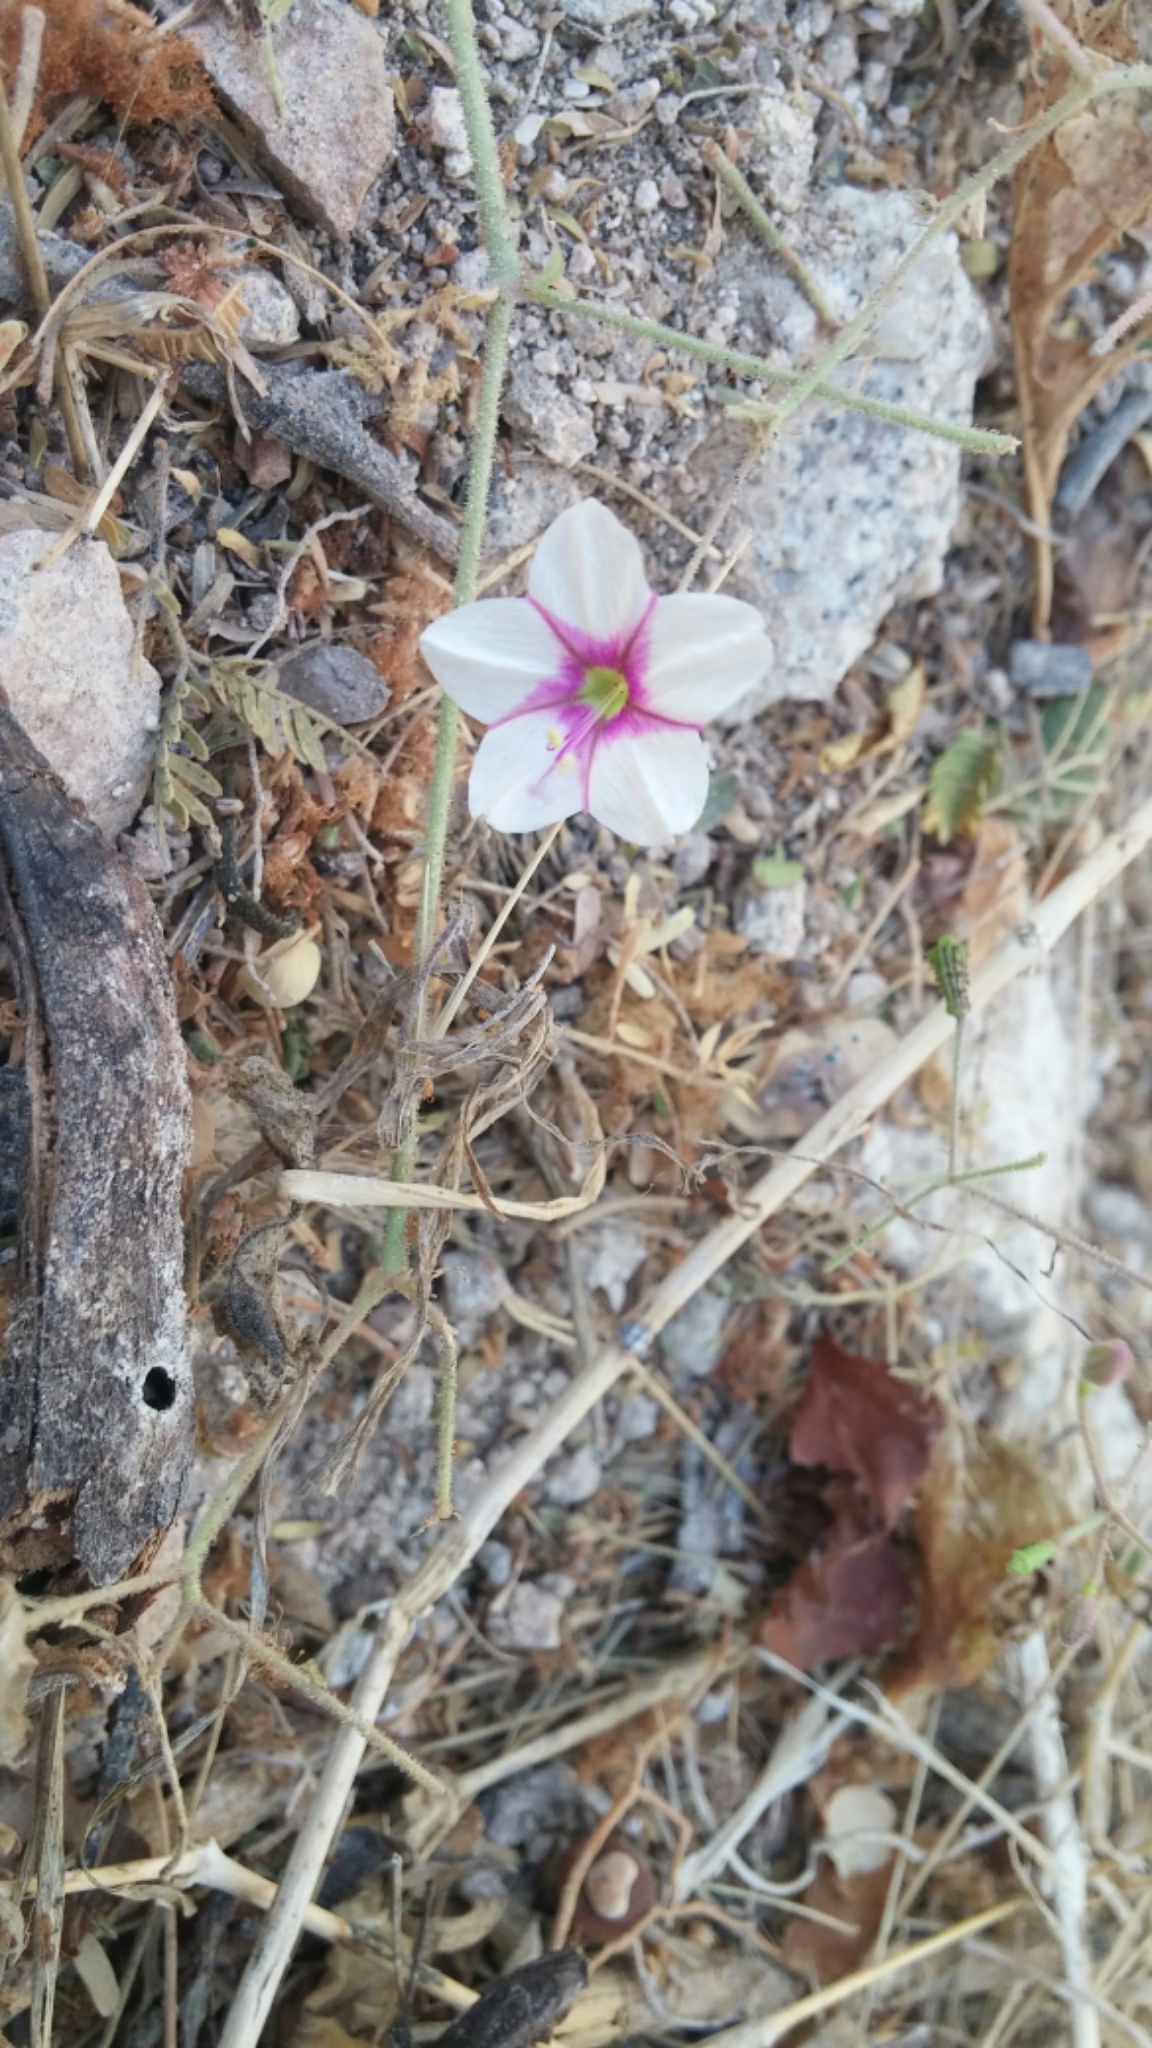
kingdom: Plantae
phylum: Tracheophyta
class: Magnoliopsida
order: Caryophyllales
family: Nyctaginaceae
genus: Commicarpus
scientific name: Commicarpus brandegeei
